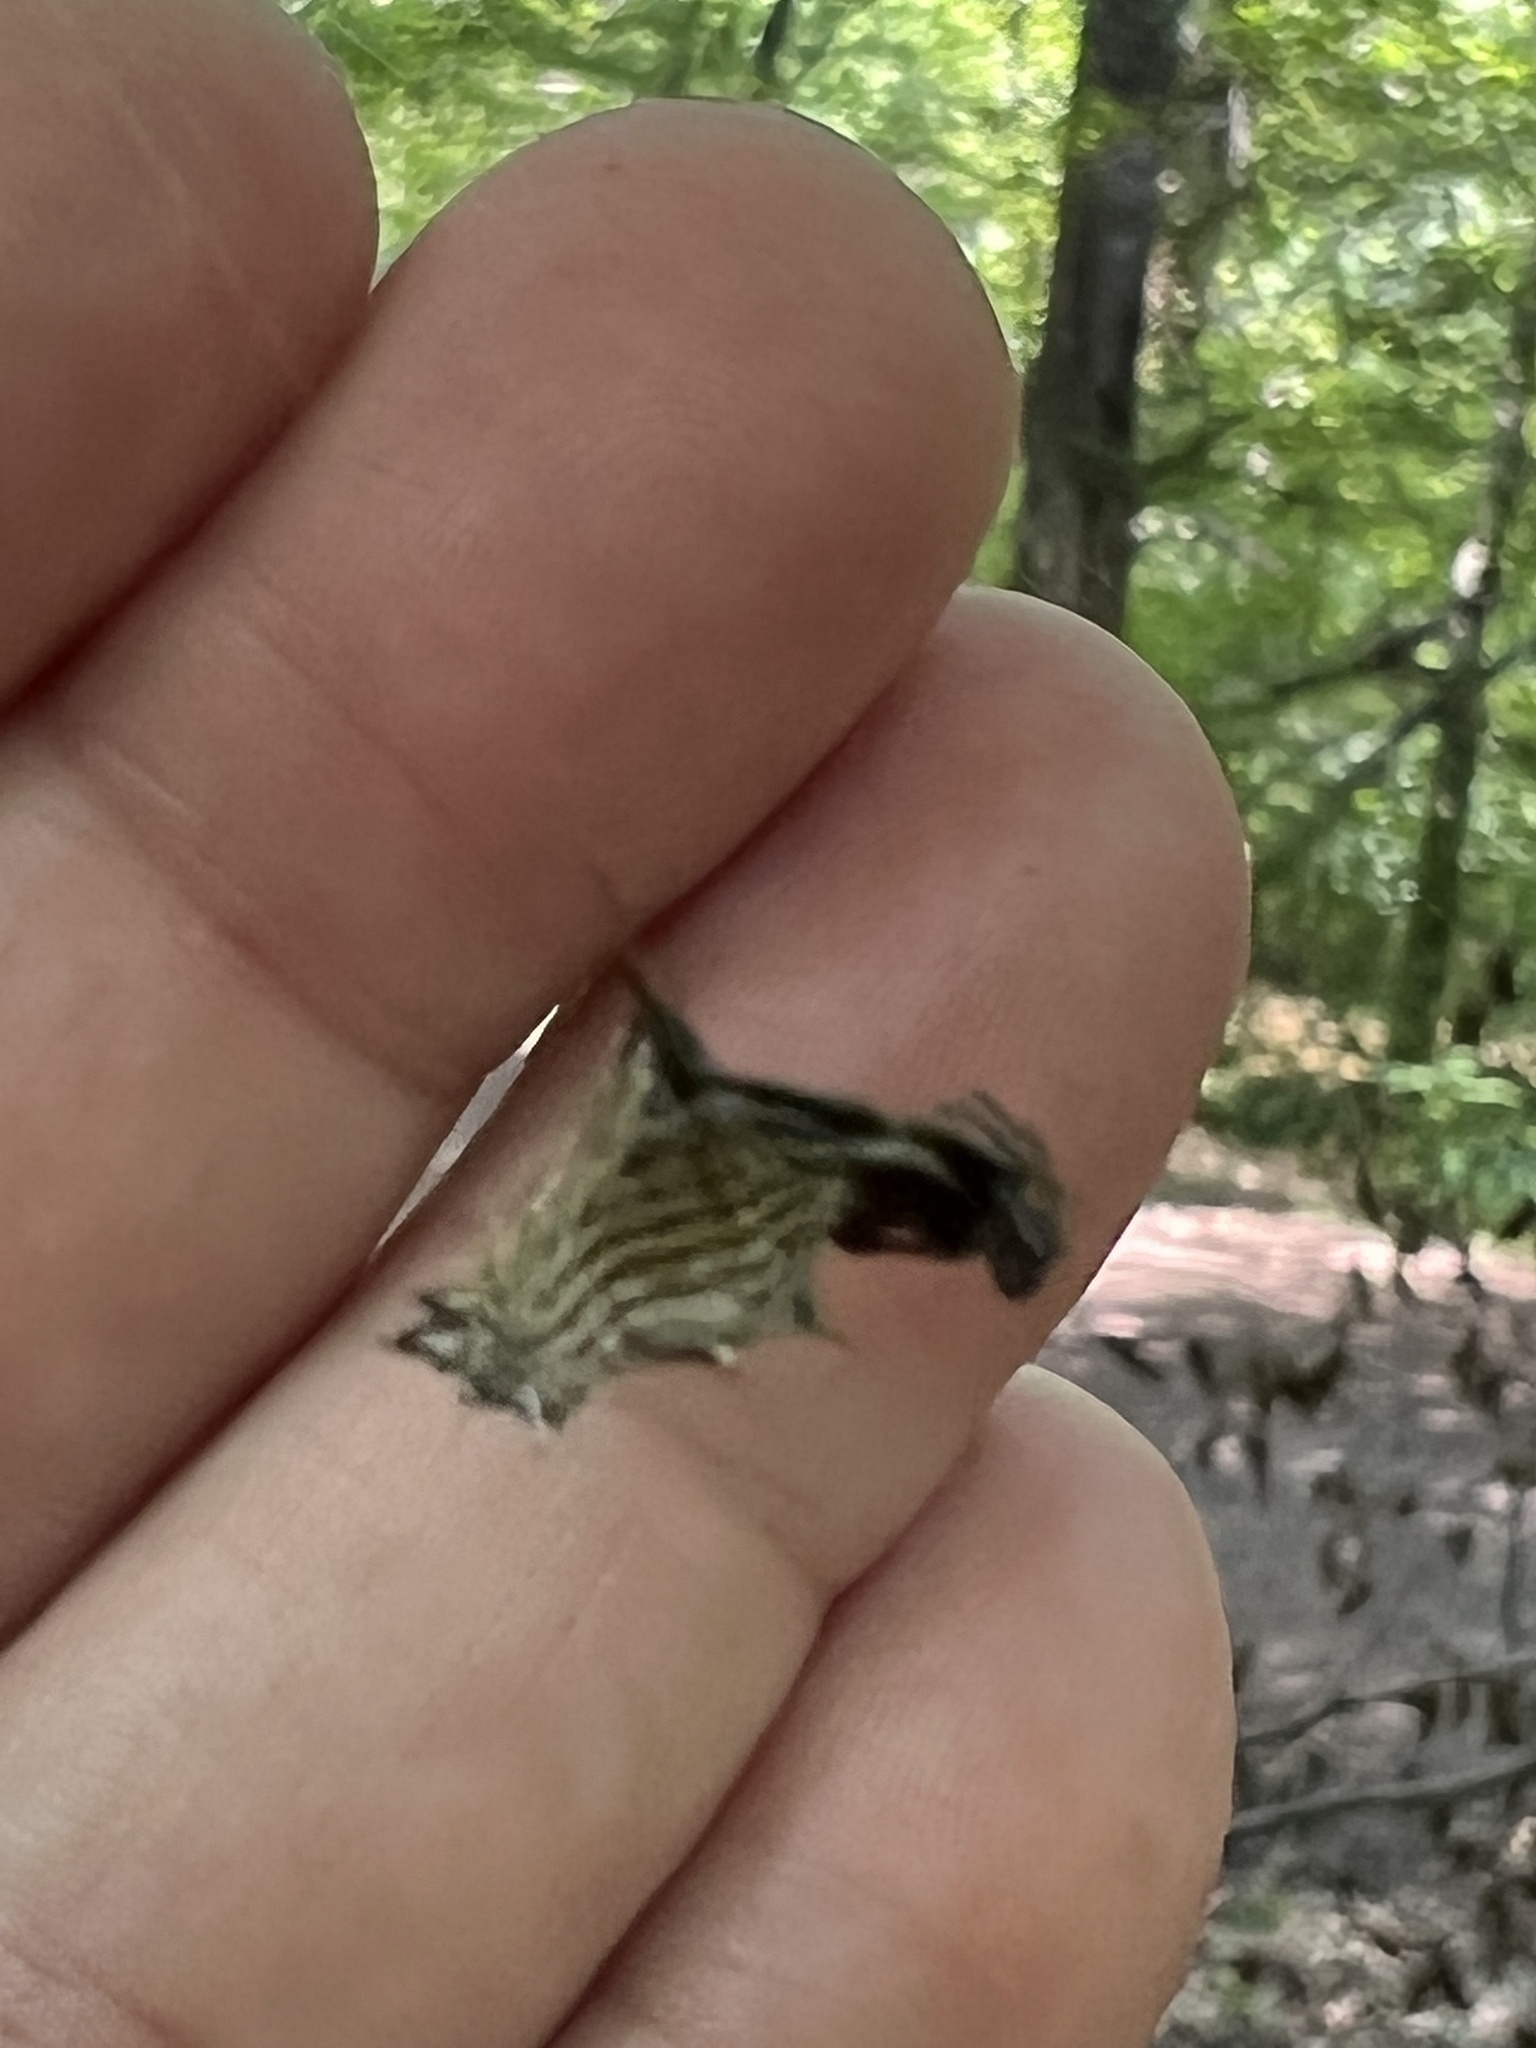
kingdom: Animalia
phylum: Arthropoda
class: Arachnida
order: Araneae
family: Araneidae
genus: Micrathena
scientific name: Micrathena gracilis
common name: Orb weavers
